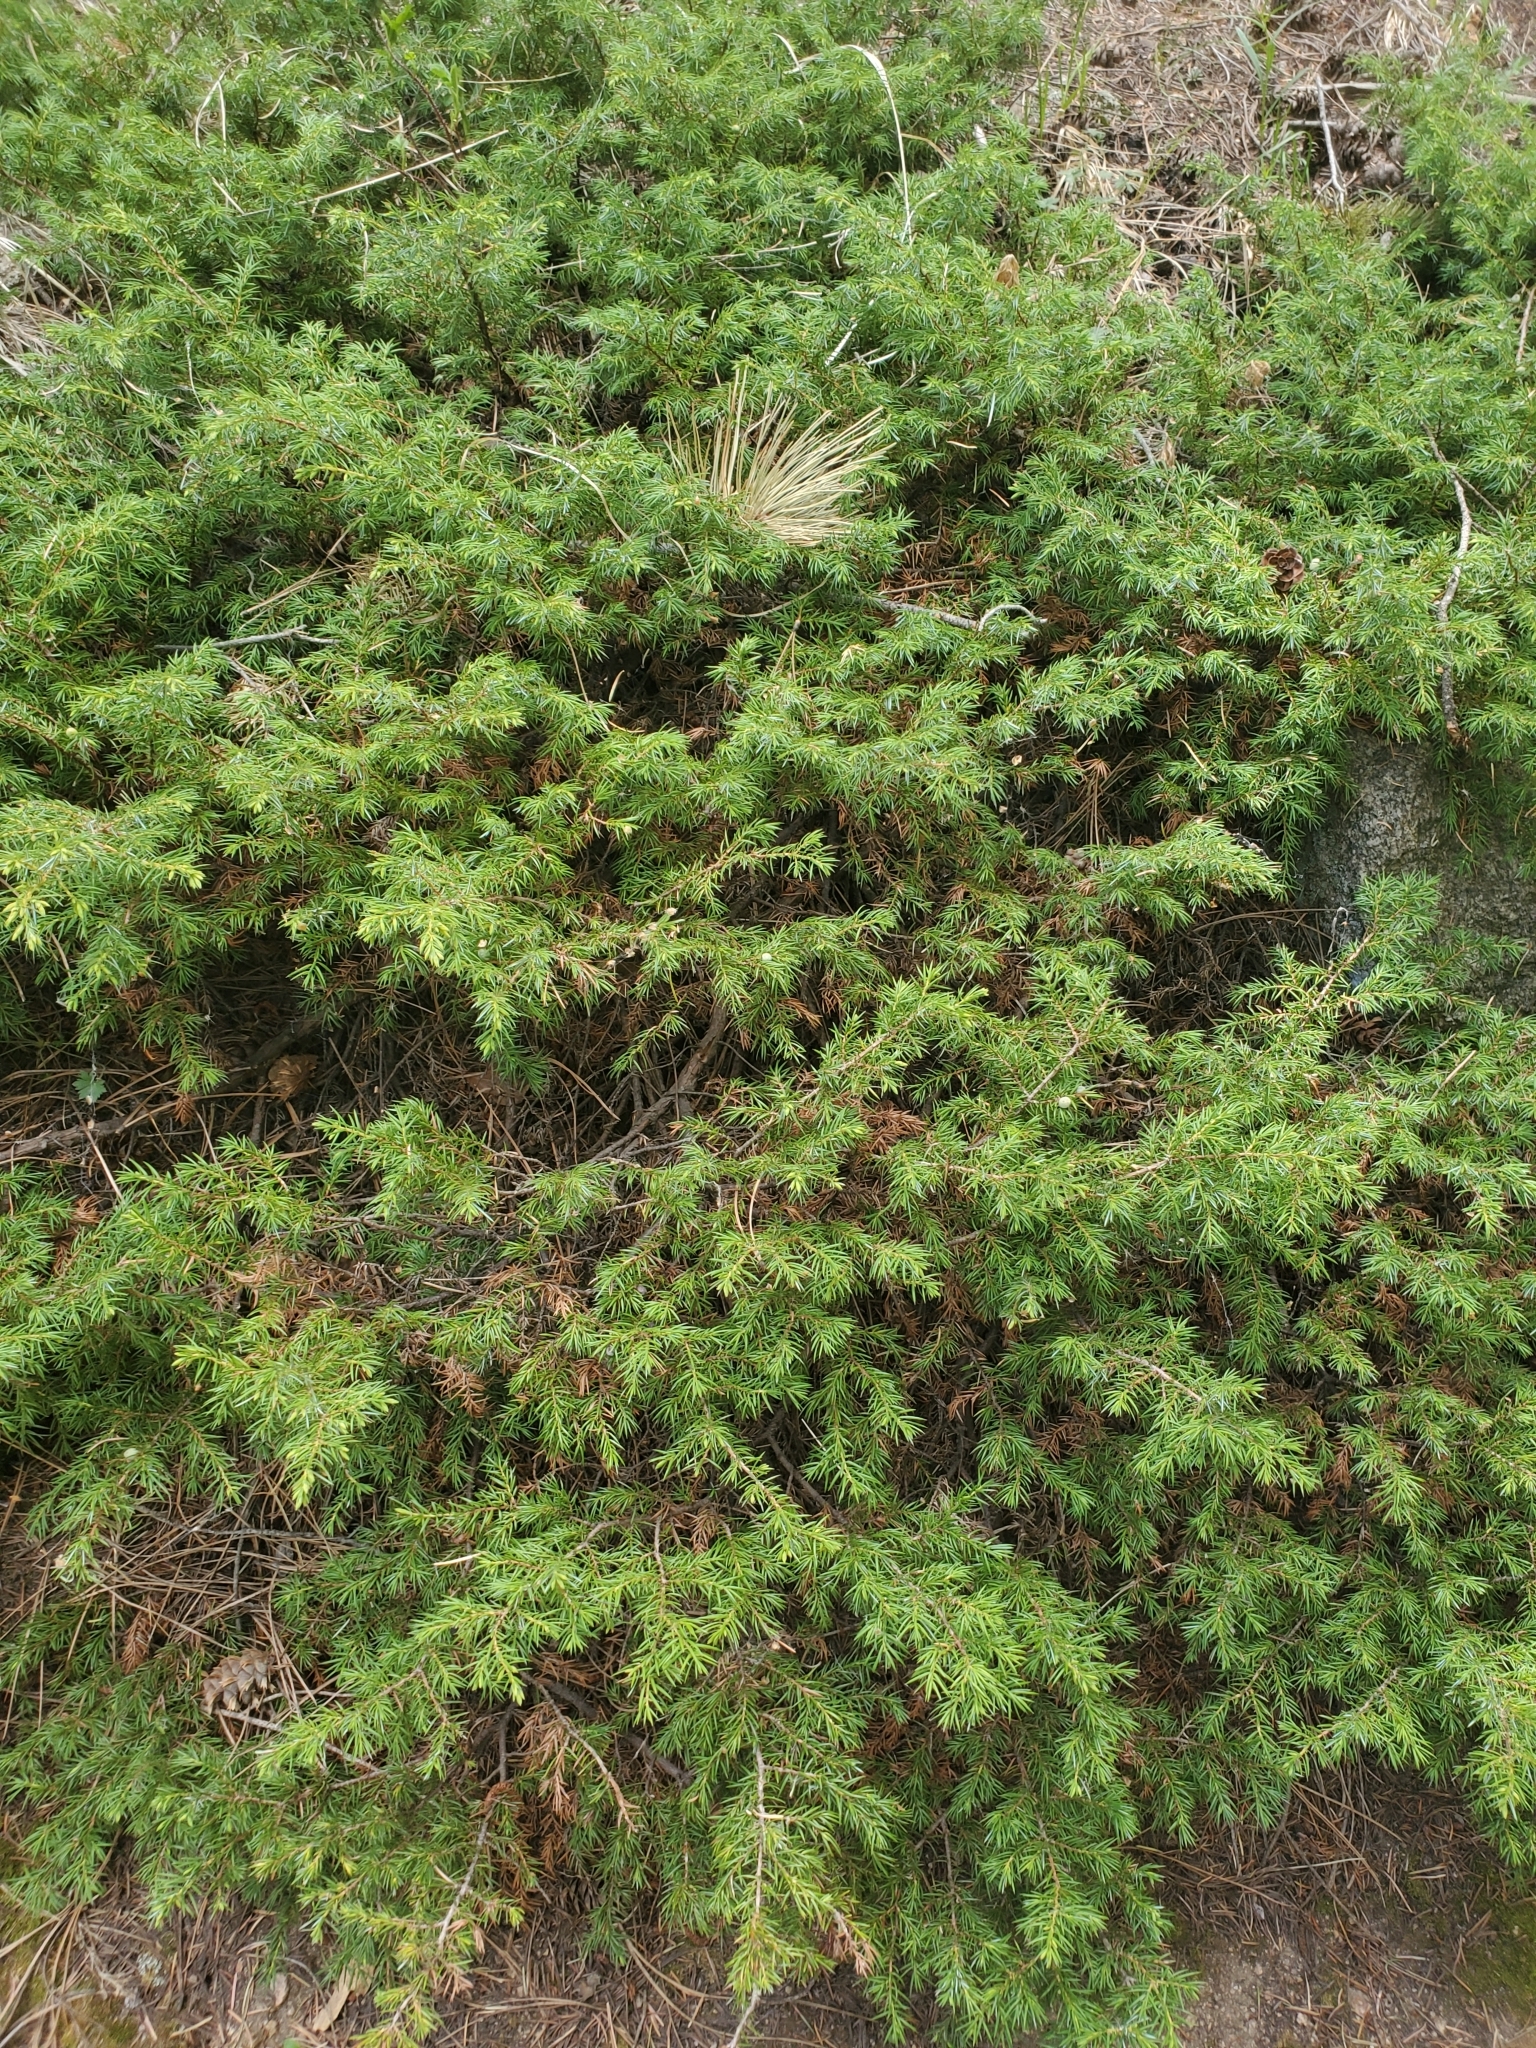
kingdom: Plantae
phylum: Tracheophyta
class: Pinopsida
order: Pinales
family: Cupressaceae
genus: Juniperus
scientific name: Juniperus communis
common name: Common juniper
